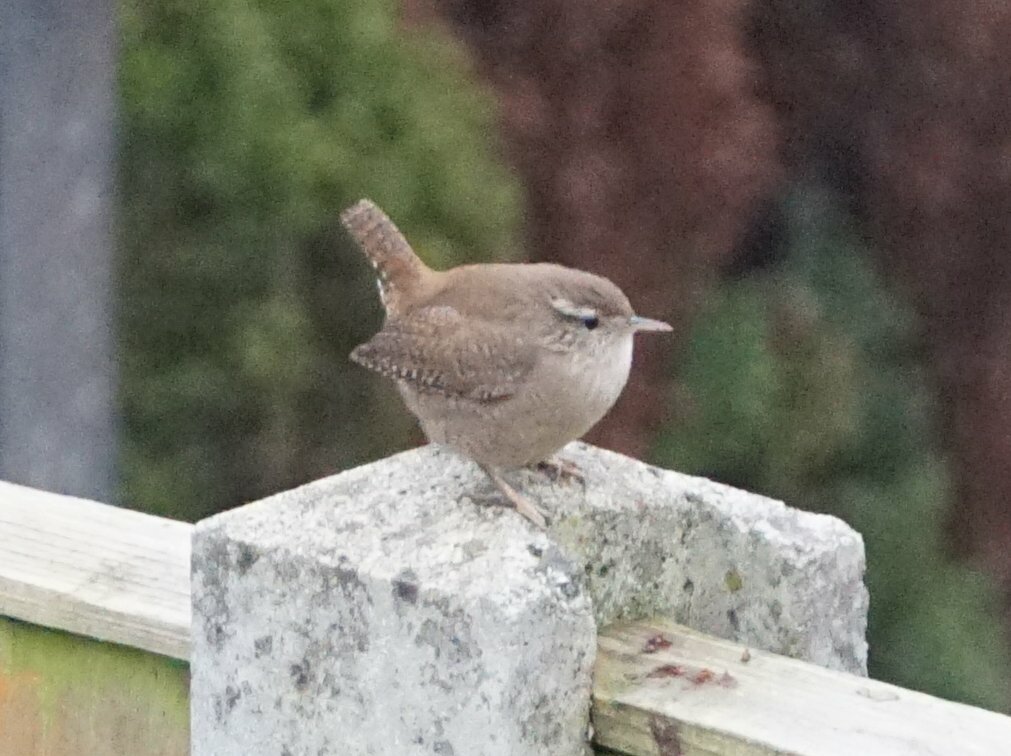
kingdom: Animalia
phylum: Chordata
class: Aves
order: Passeriformes
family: Troglodytidae
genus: Troglodytes
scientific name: Troglodytes troglodytes
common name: Eurasian wren
